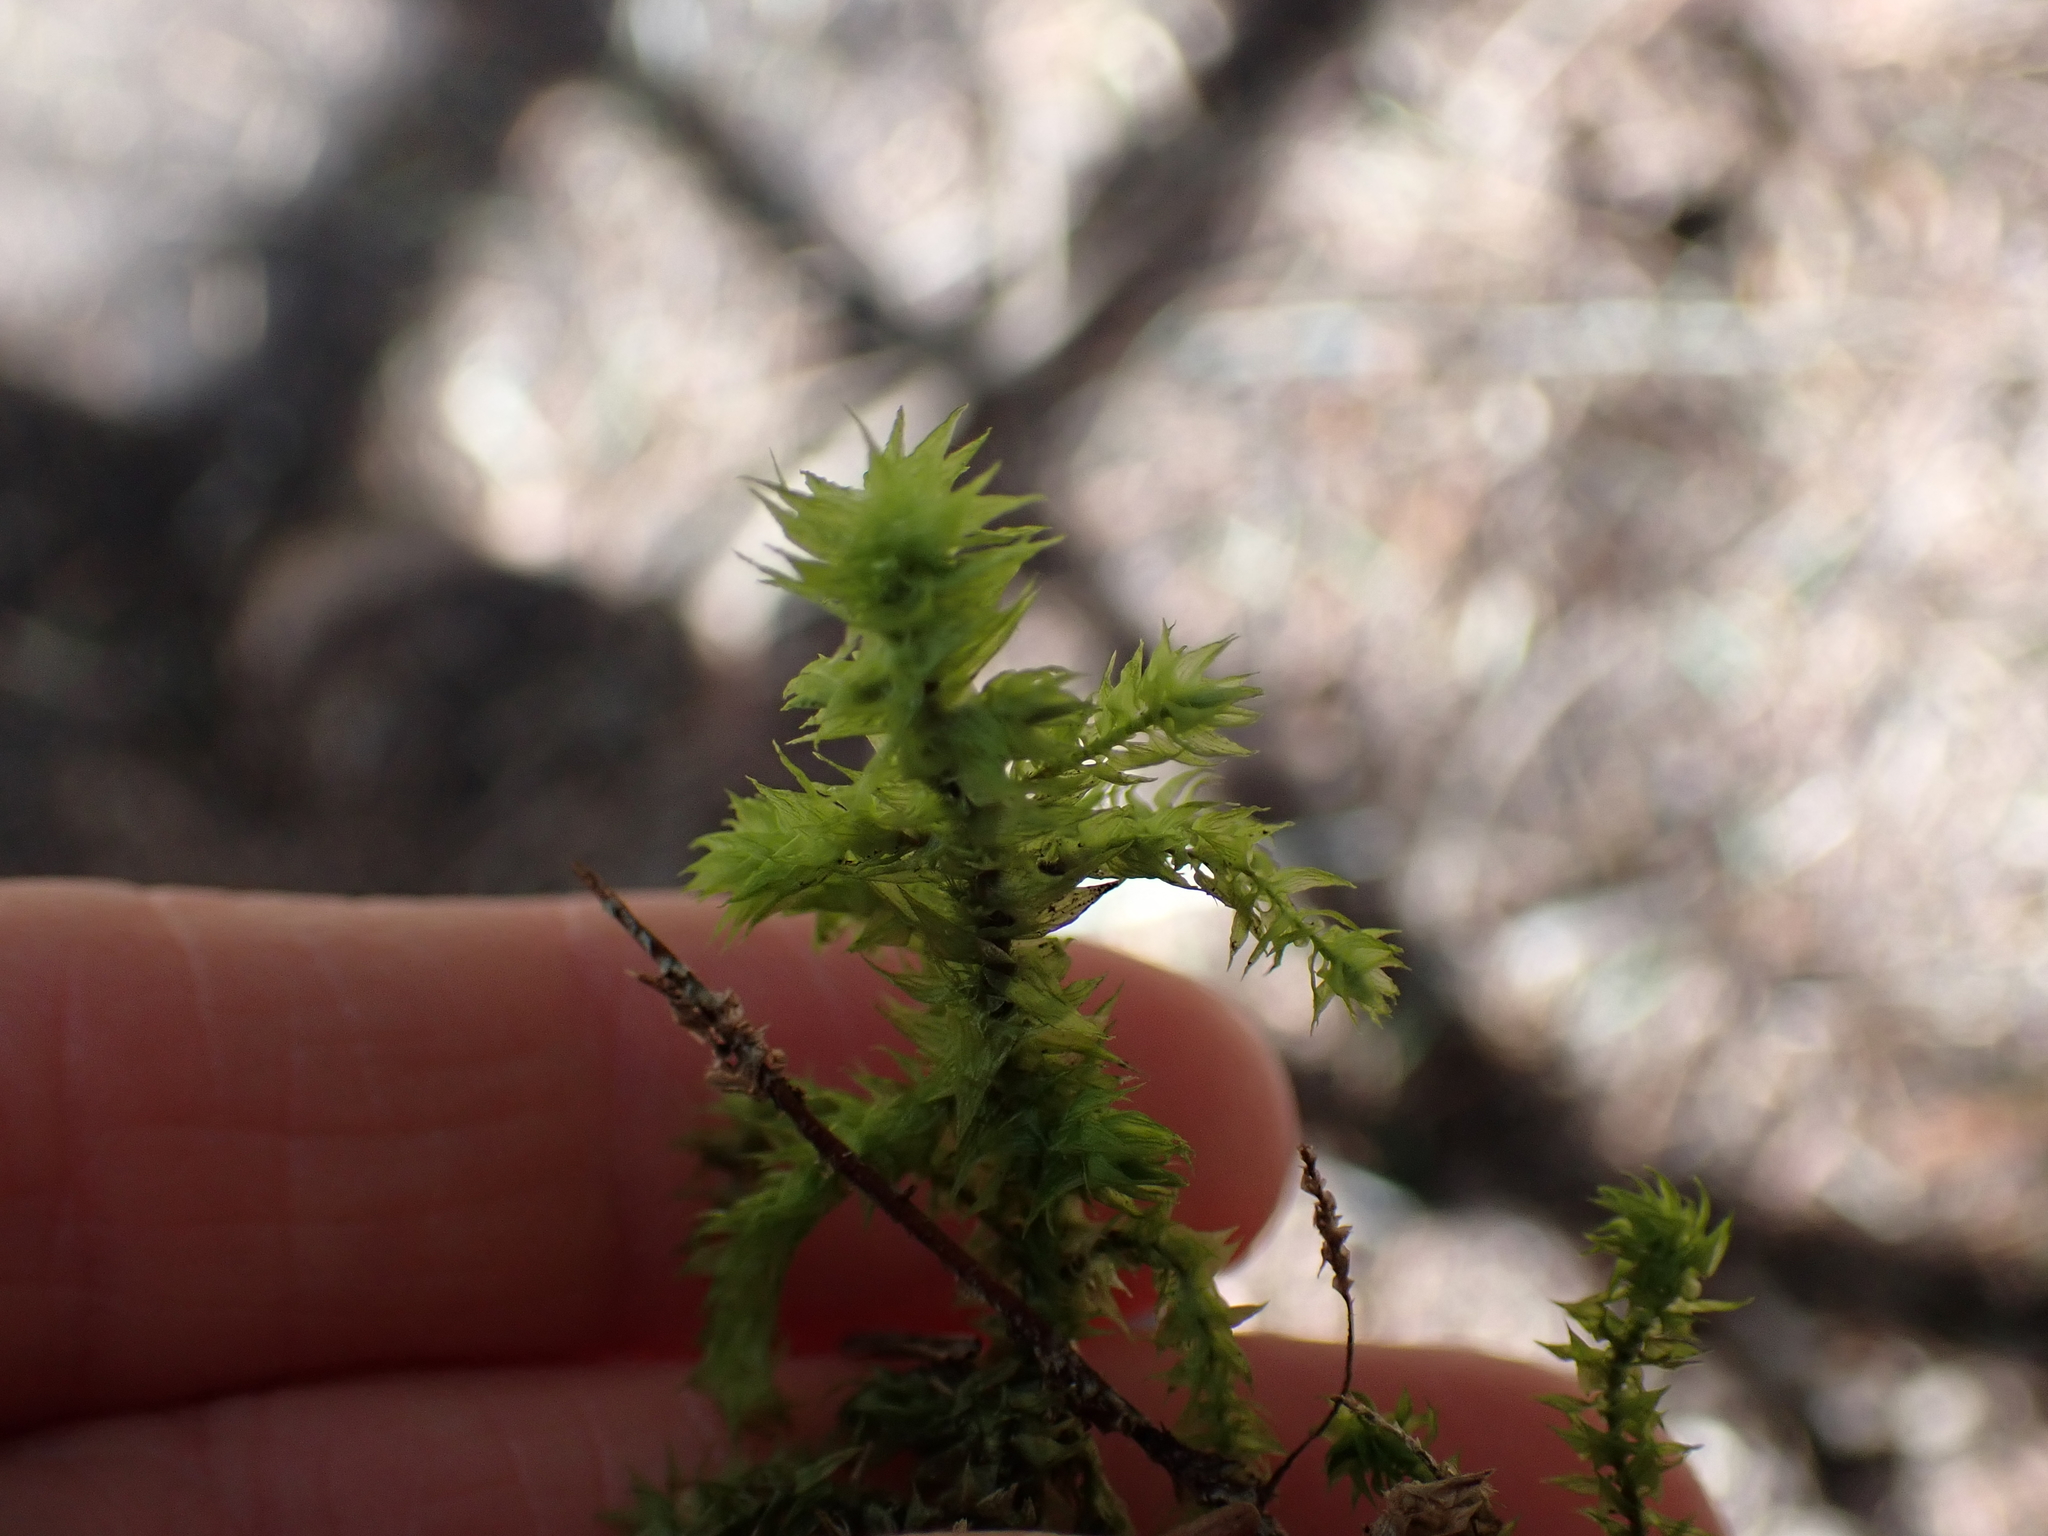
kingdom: Plantae
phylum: Bryophyta
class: Bryopsida
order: Hypnales
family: Hylocomiaceae
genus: Hylocomiadelphus
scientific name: Hylocomiadelphus triquetrus
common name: Rough goose neck moss
